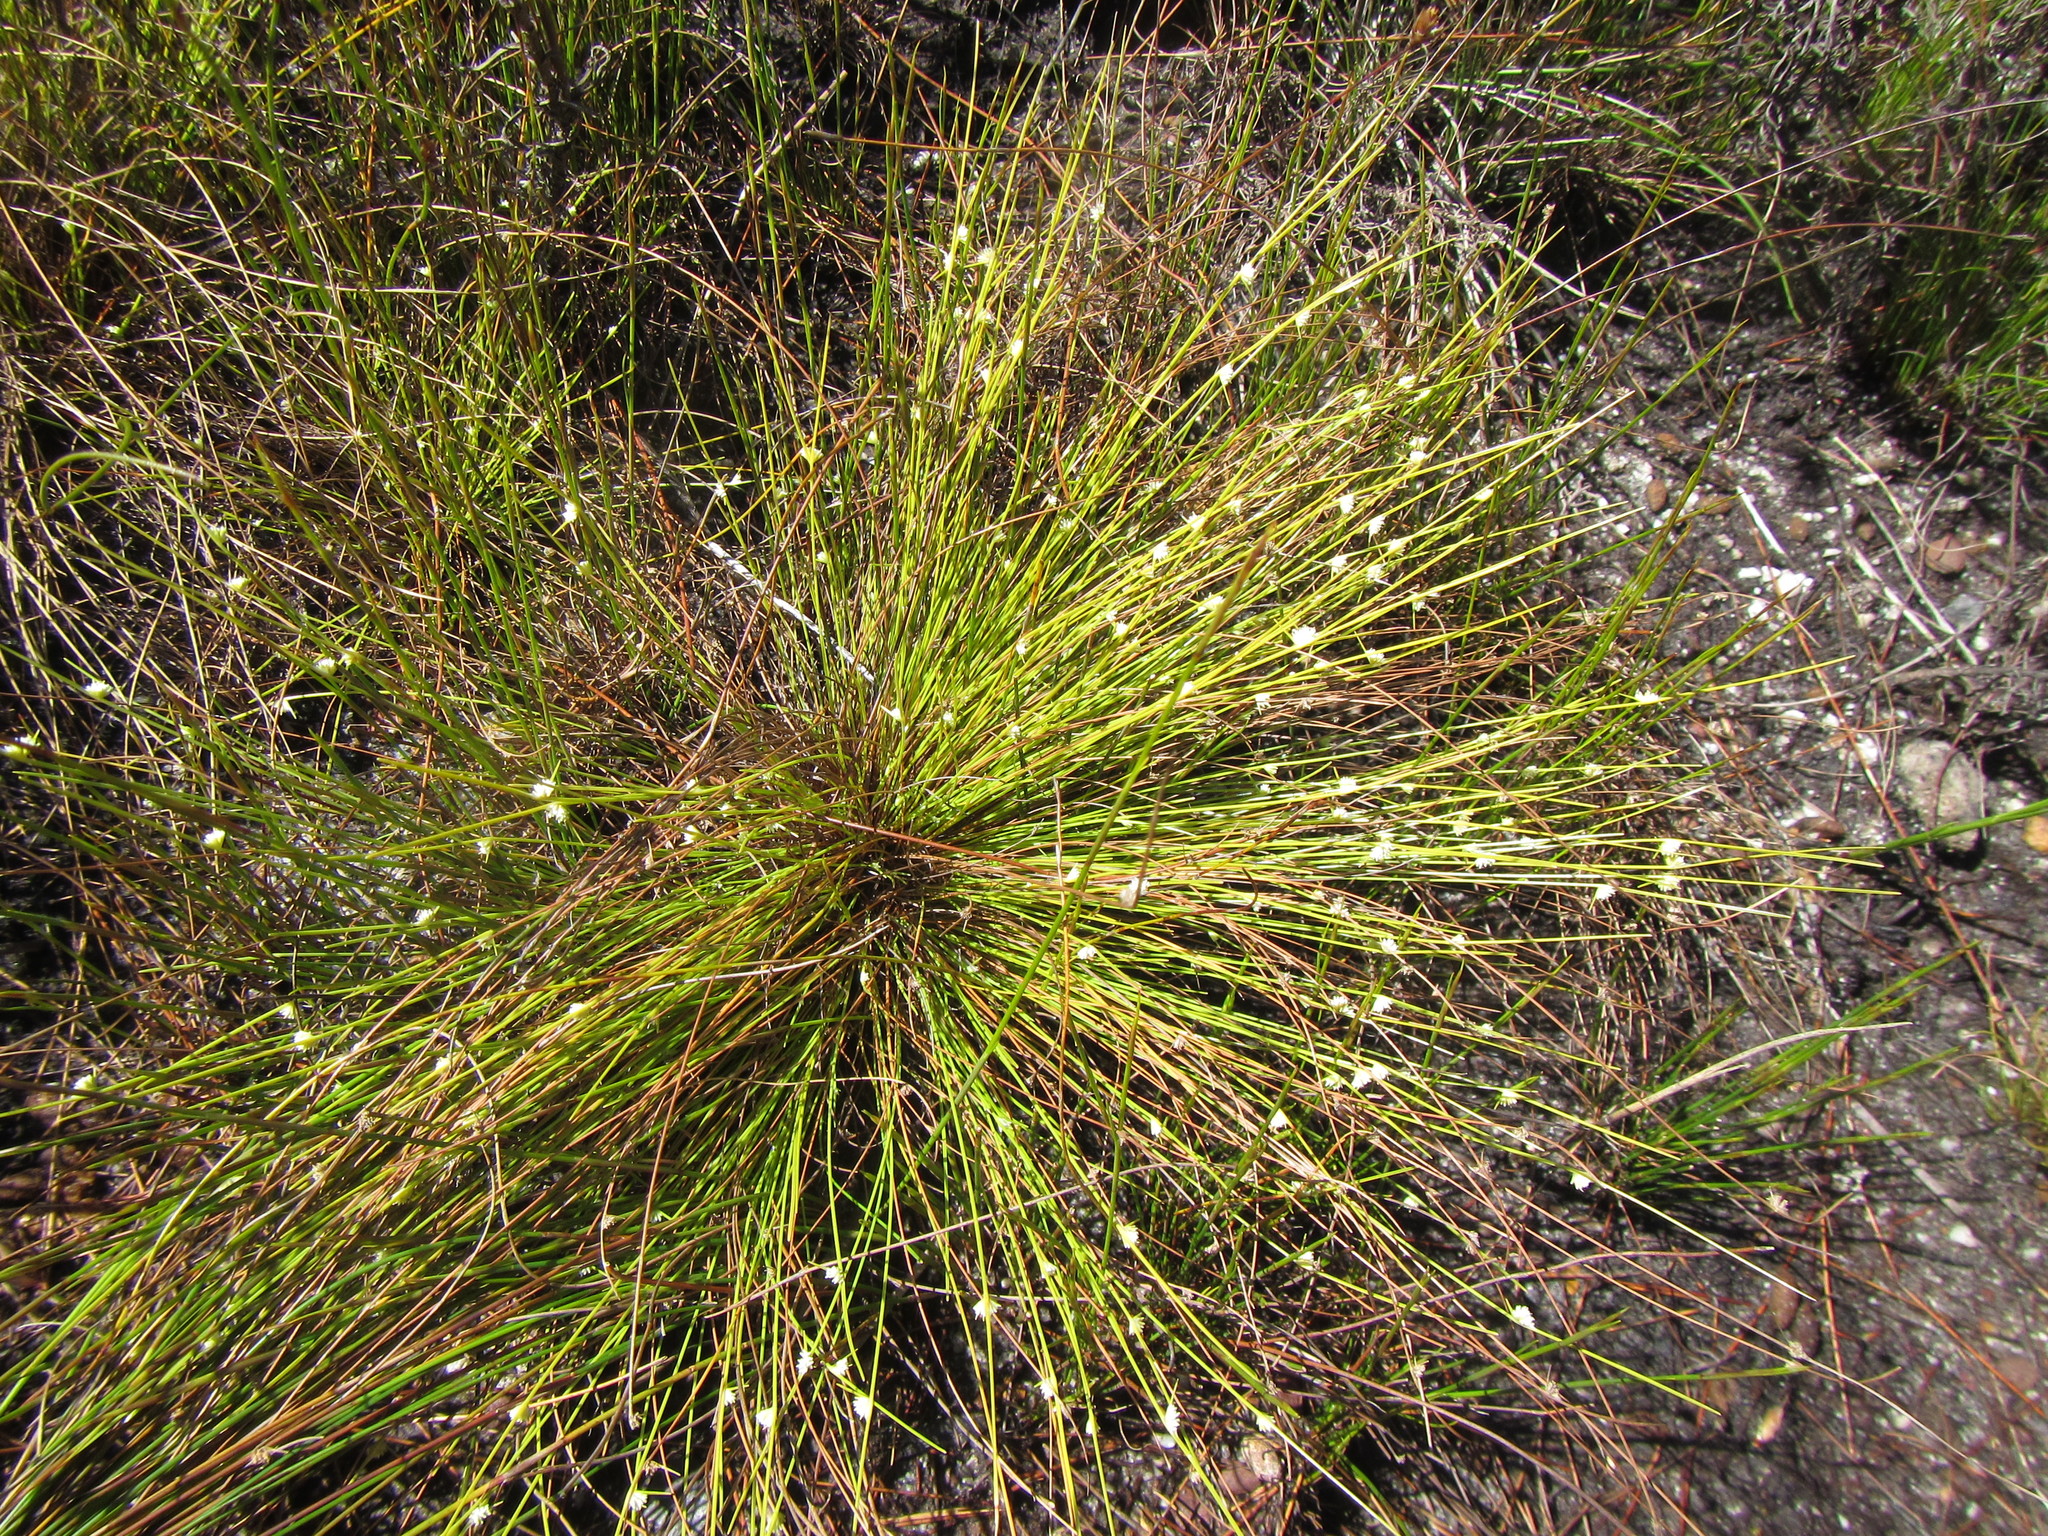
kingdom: Plantae
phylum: Tracheophyta
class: Liliopsida
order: Poales
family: Cyperaceae
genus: Ficinia
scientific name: Ficinia minutiflora
